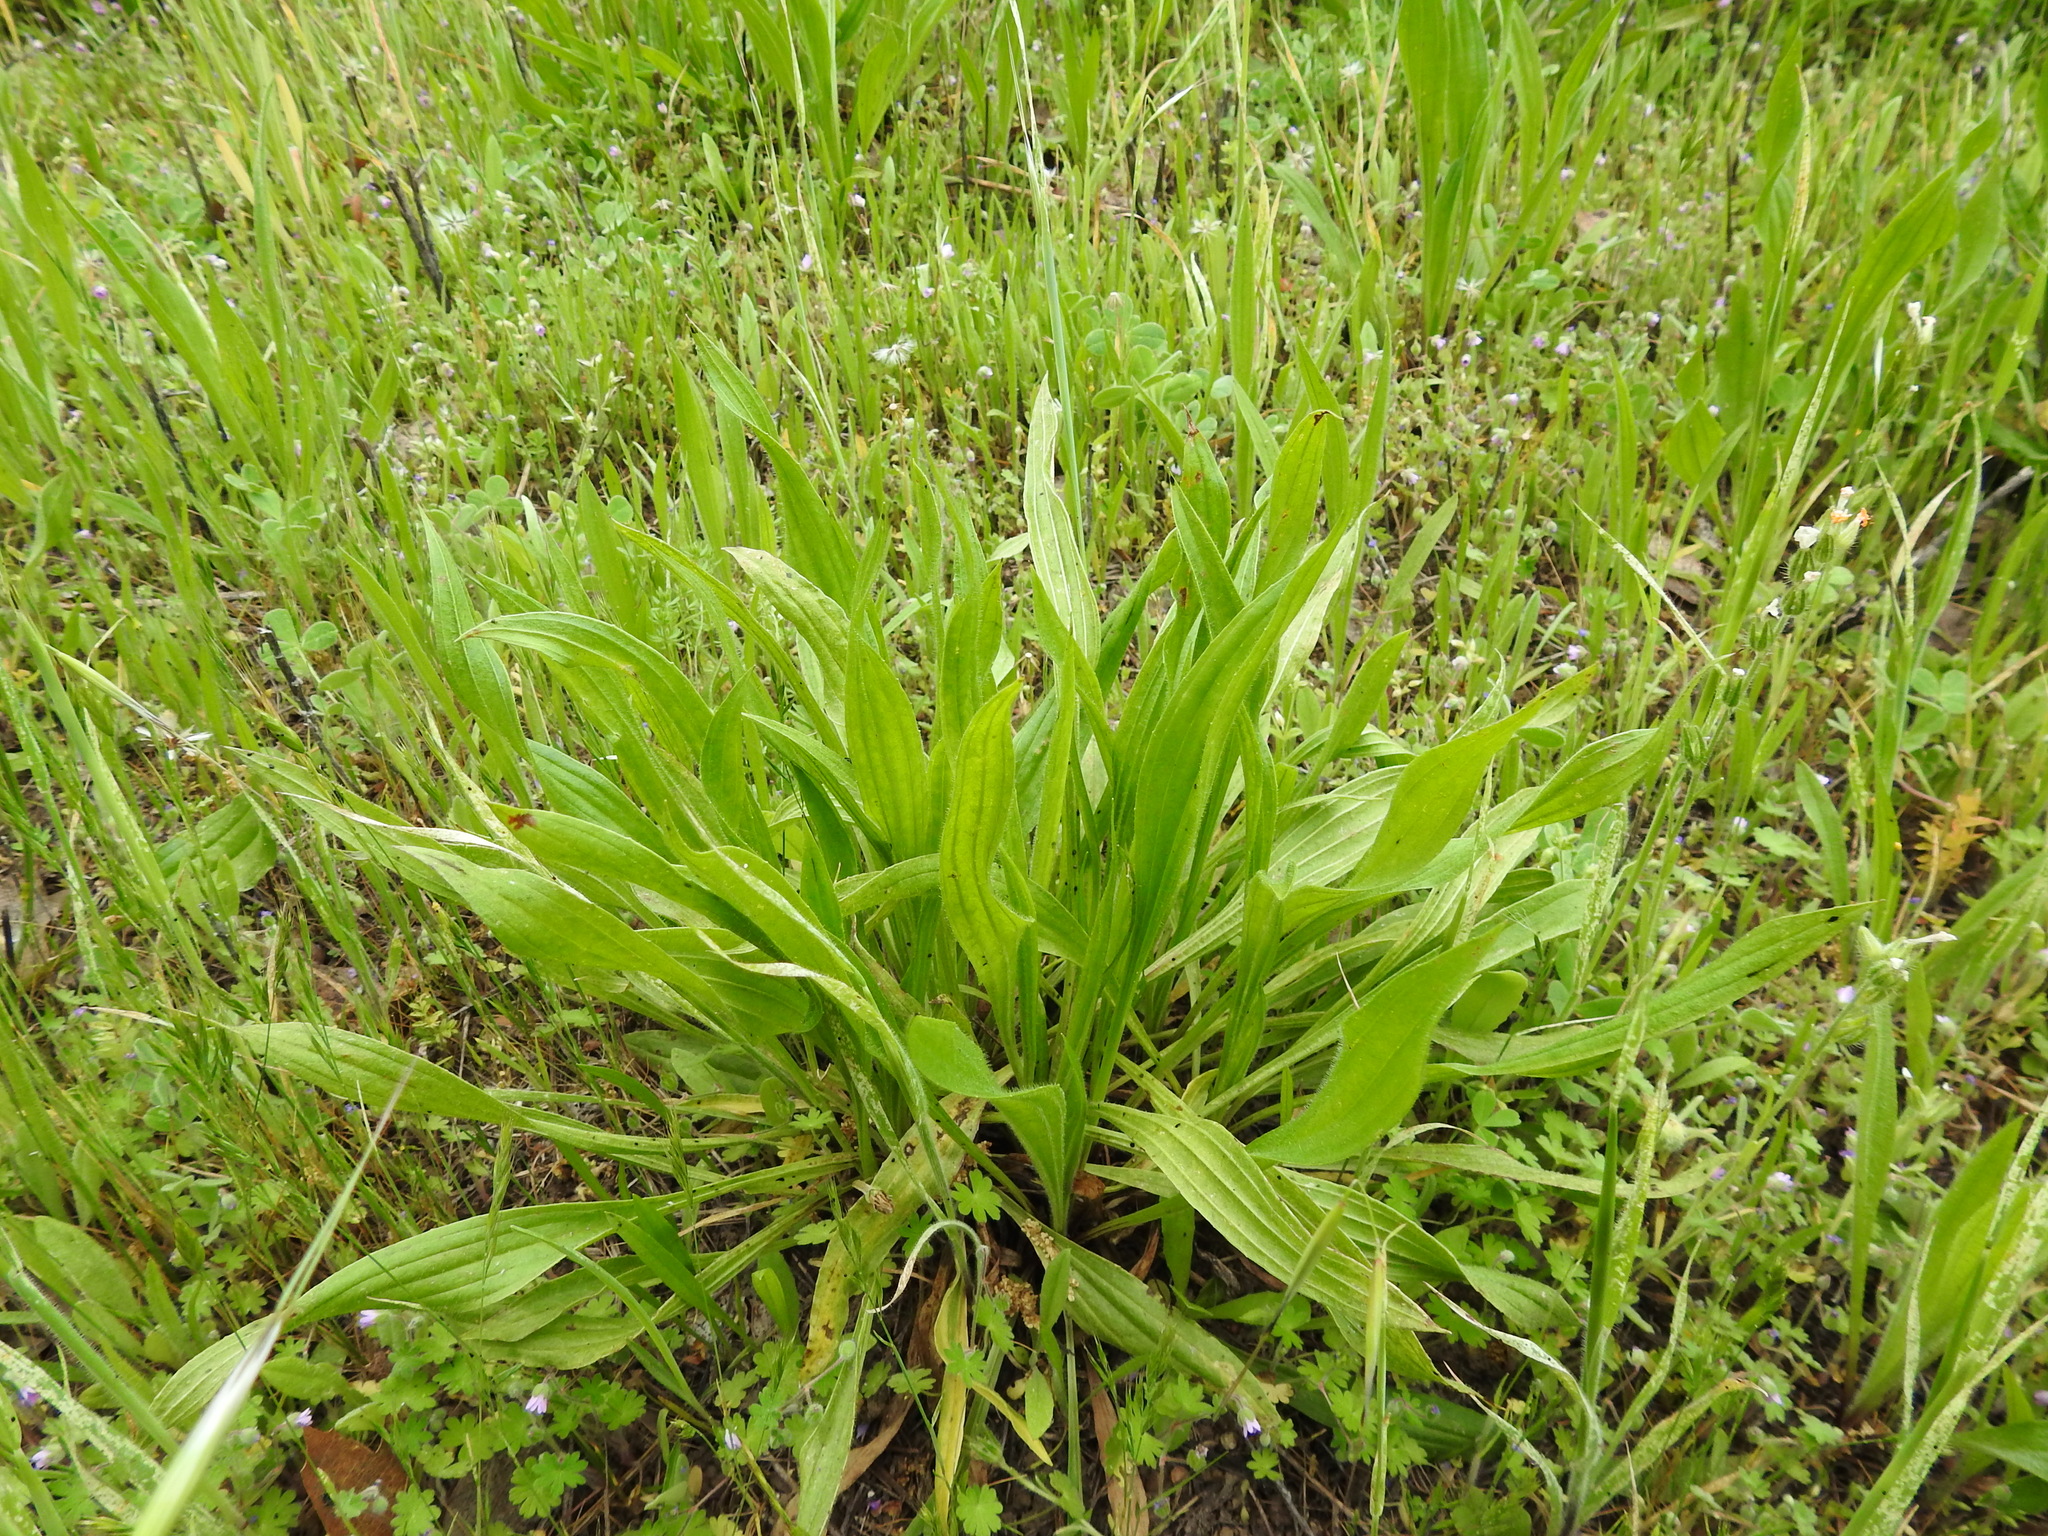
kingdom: Plantae
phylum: Tracheophyta
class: Magnoliopsida
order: Lamiales
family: Plantaginaceae
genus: Plantago
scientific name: Plantago lanceolata
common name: Ribwort plantain
